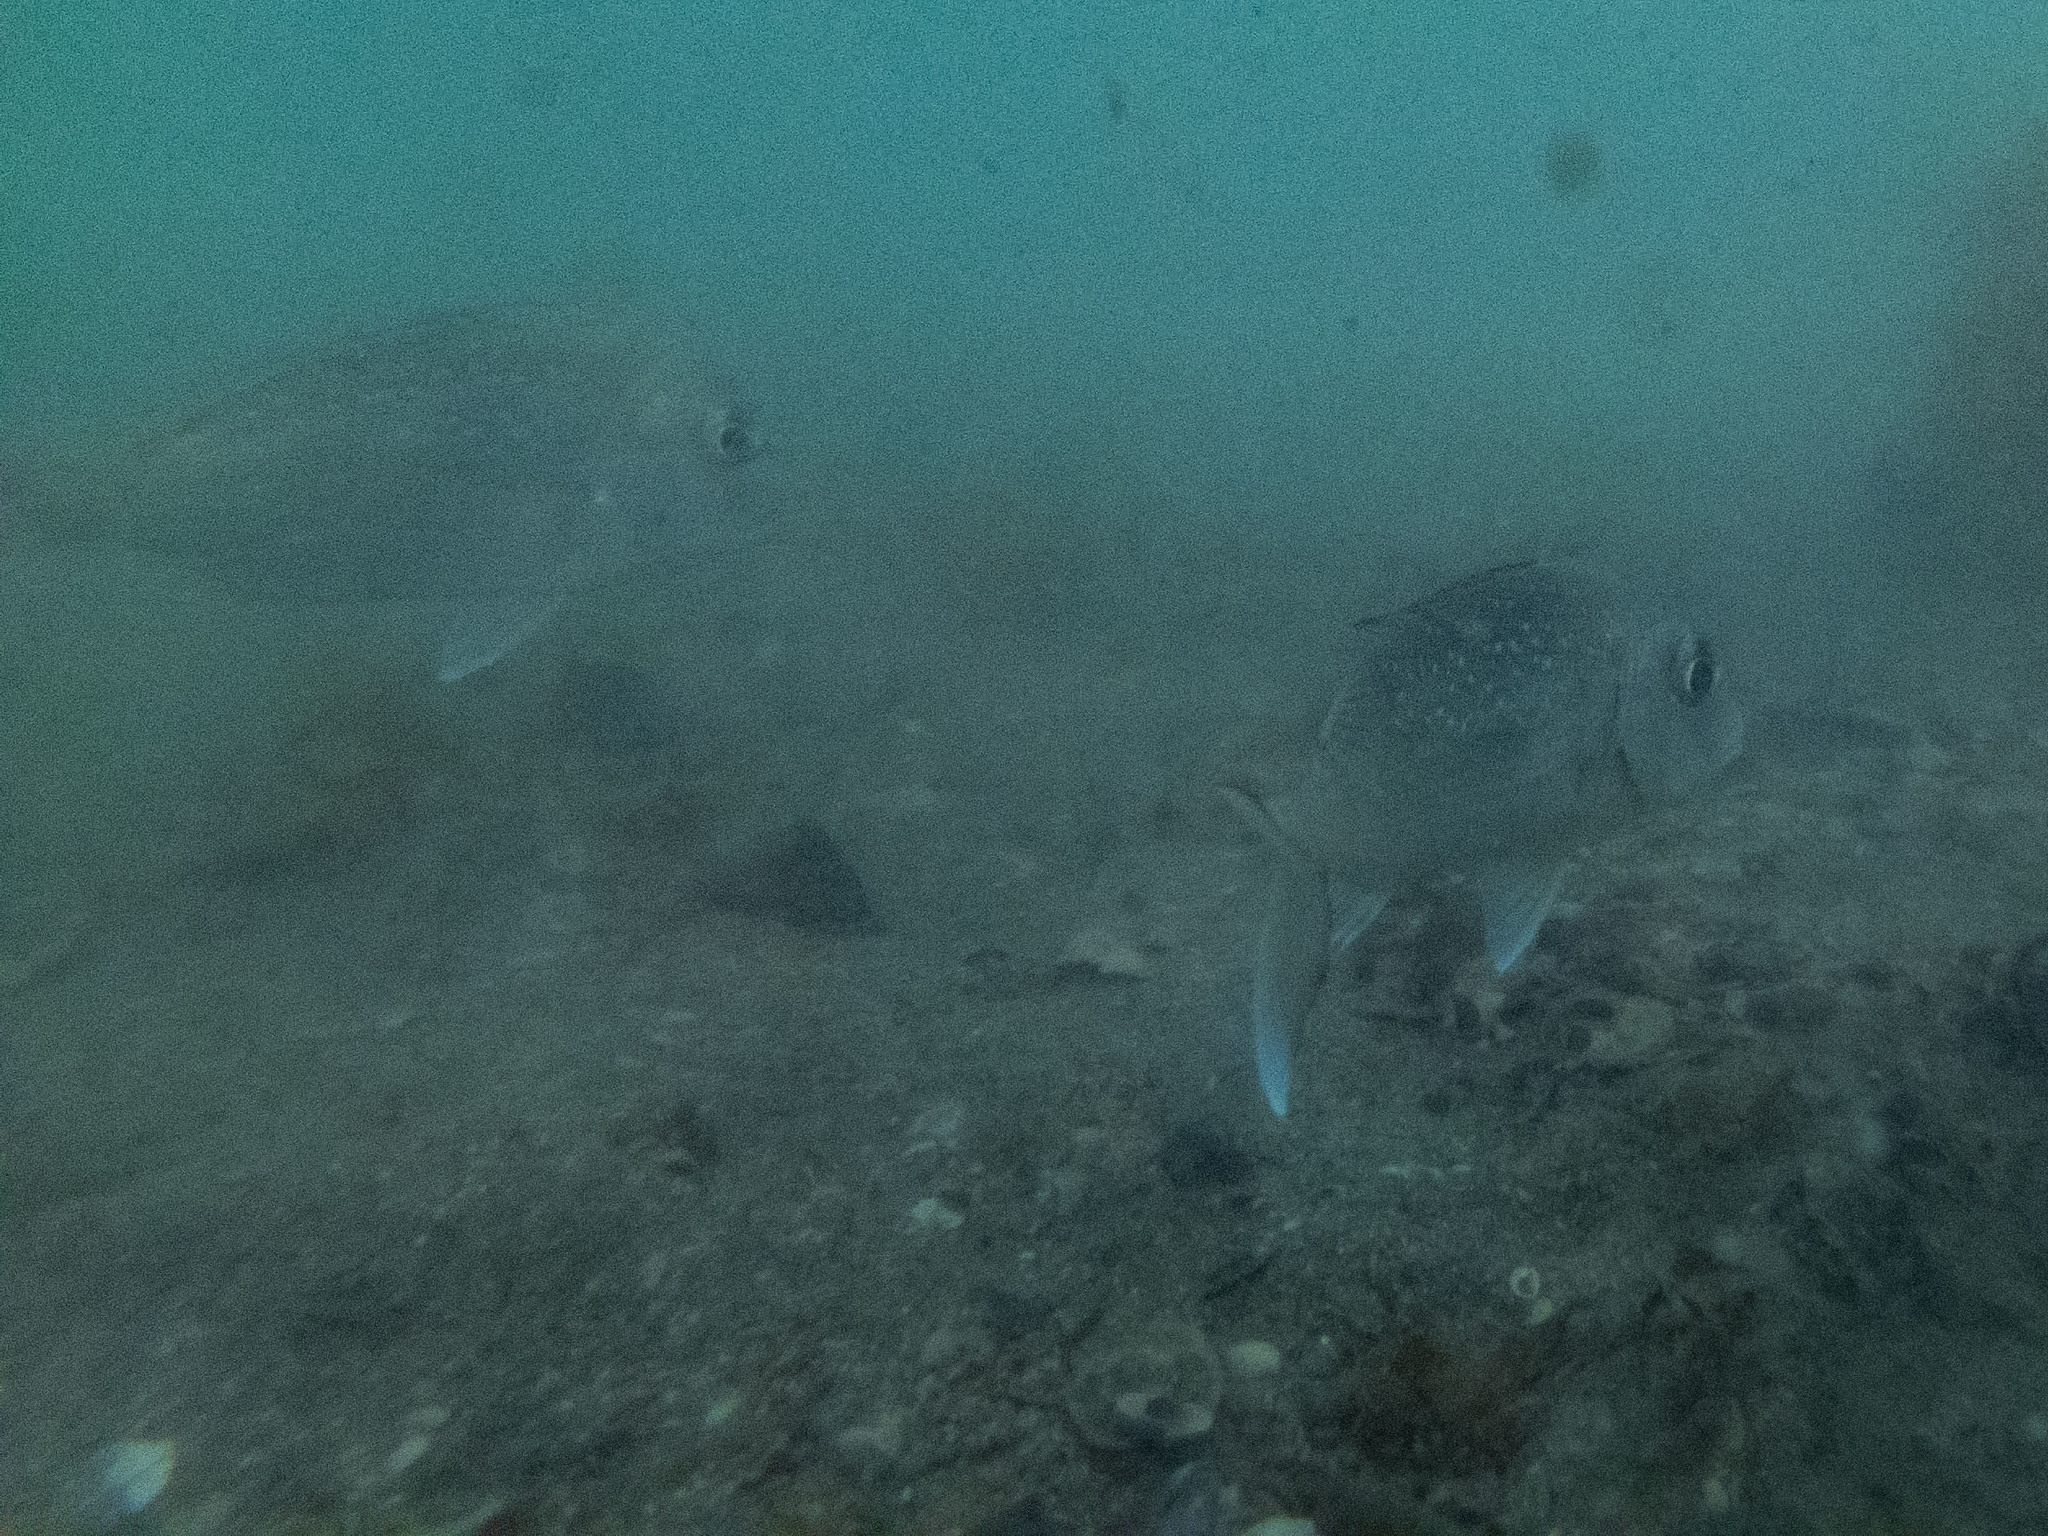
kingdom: Animalia
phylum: Chordata
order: Perciformes
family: Sparidae
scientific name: Sparidae
